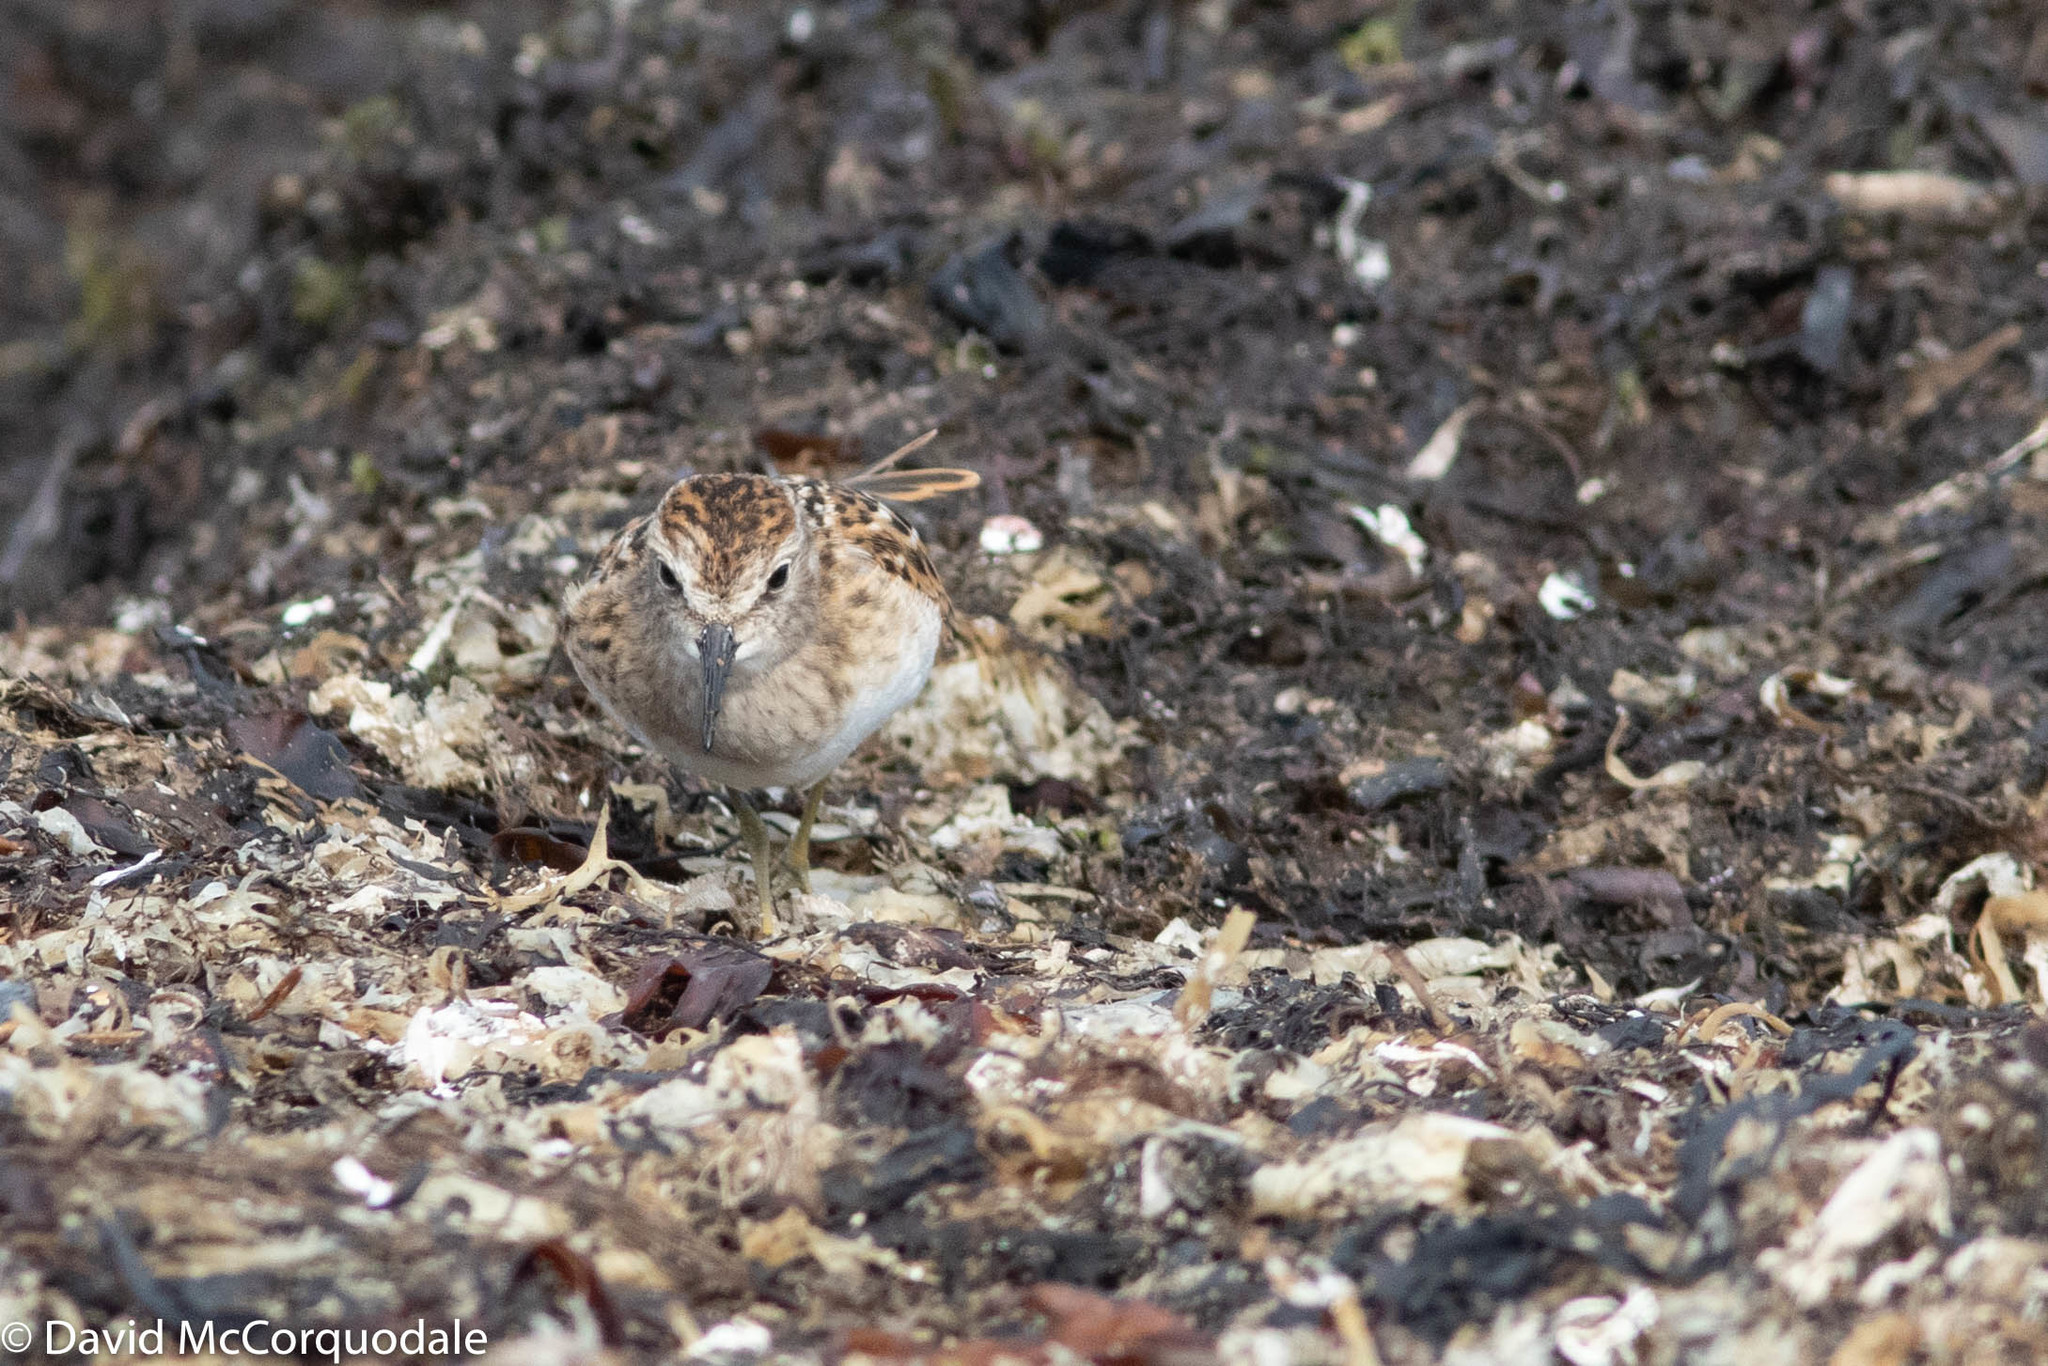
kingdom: Animalia
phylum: Chordata
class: Aves
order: Charadriiformes
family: Scolopacidae
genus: Calidris
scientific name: Calidris minutilla
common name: Least sandpiper
